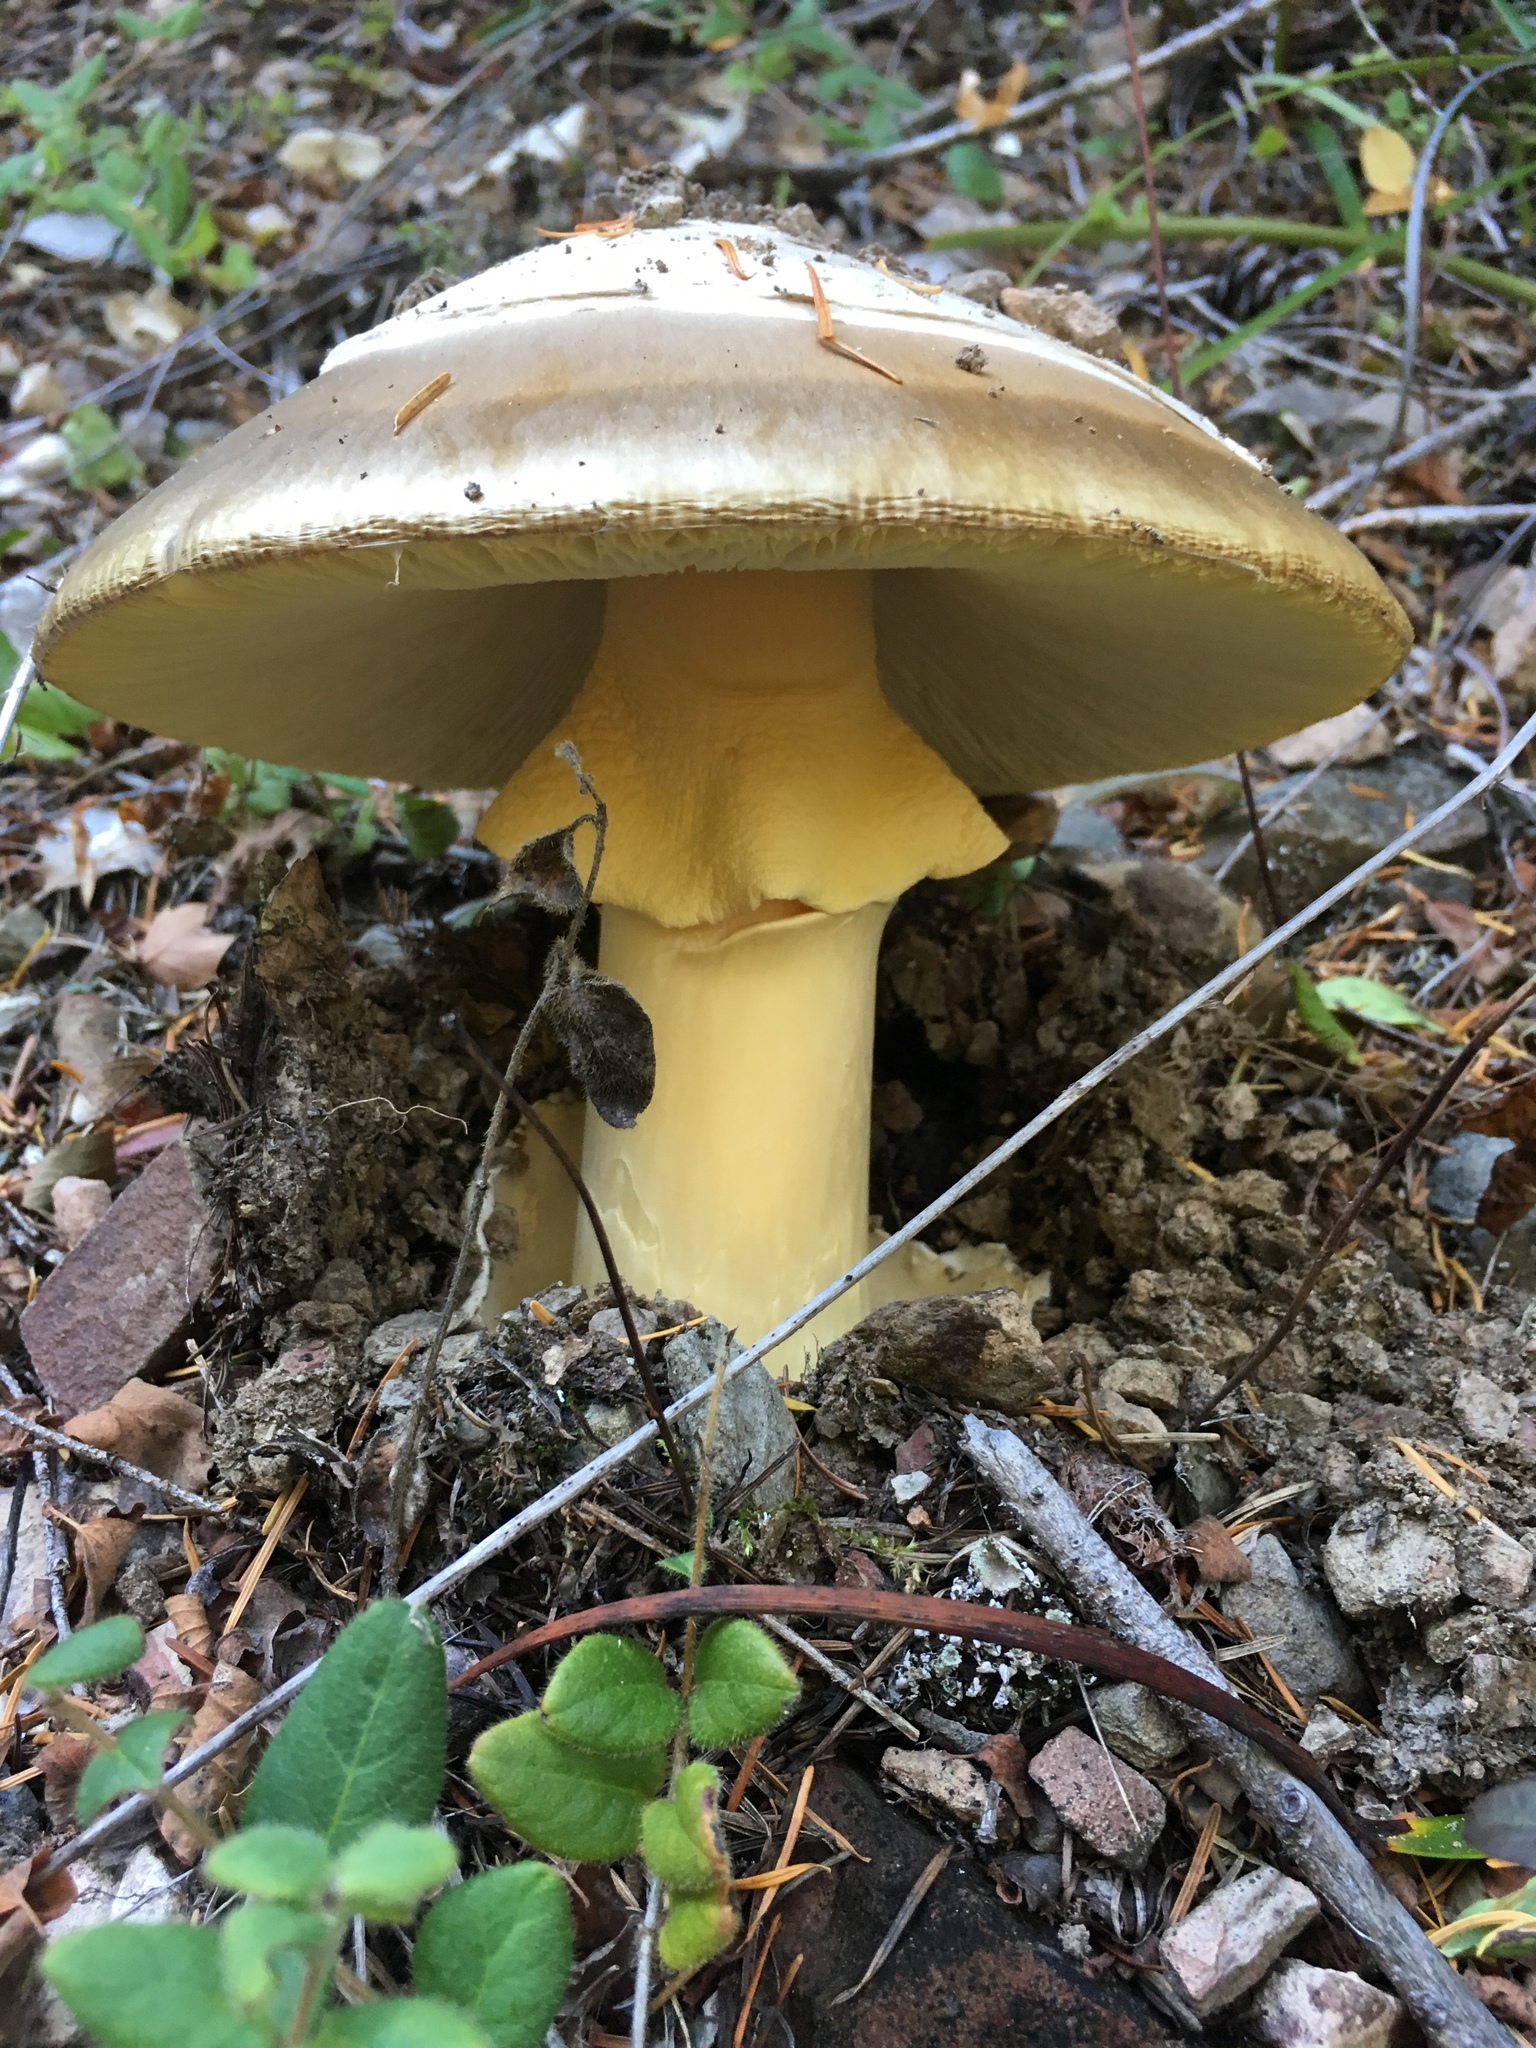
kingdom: Fungi
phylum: Basidiomycota
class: Agaricomycetes
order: Agaricales
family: Amanitaceae
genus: Amanita
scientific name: Amanita calyptroderma
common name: Coccora
